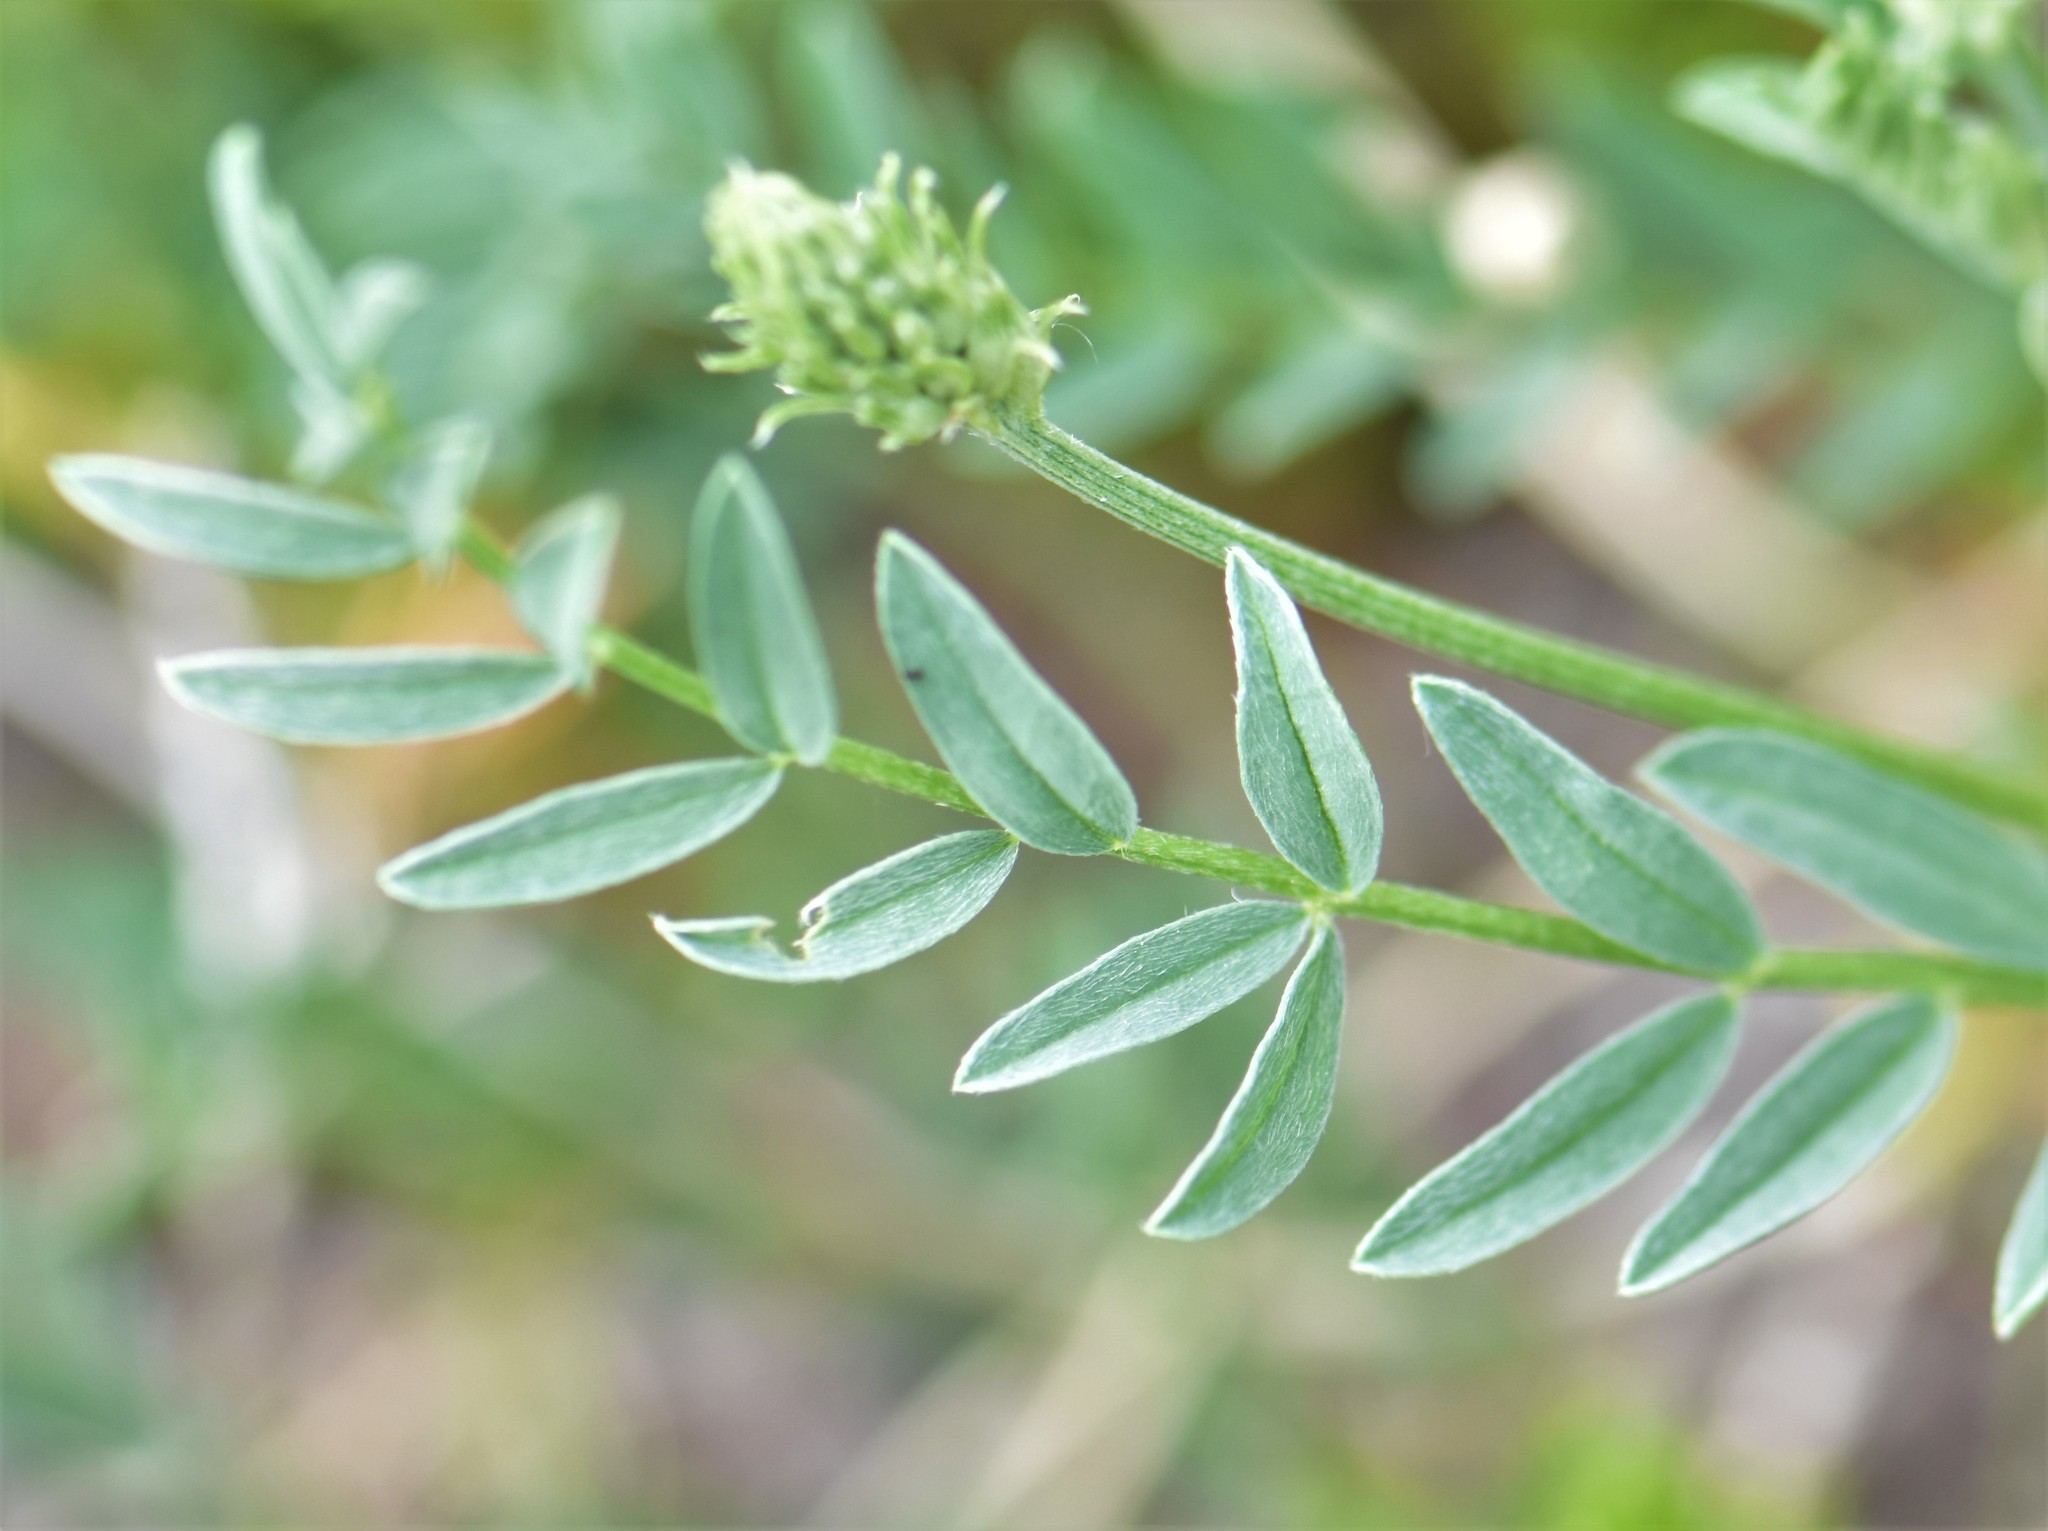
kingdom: Plantae
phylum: Tracheophyta
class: Magnoliopsida
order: Fabales
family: Fabaceae
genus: Astragalus
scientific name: Astragalus laxmannii
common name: Laxmann's milk-vetch
